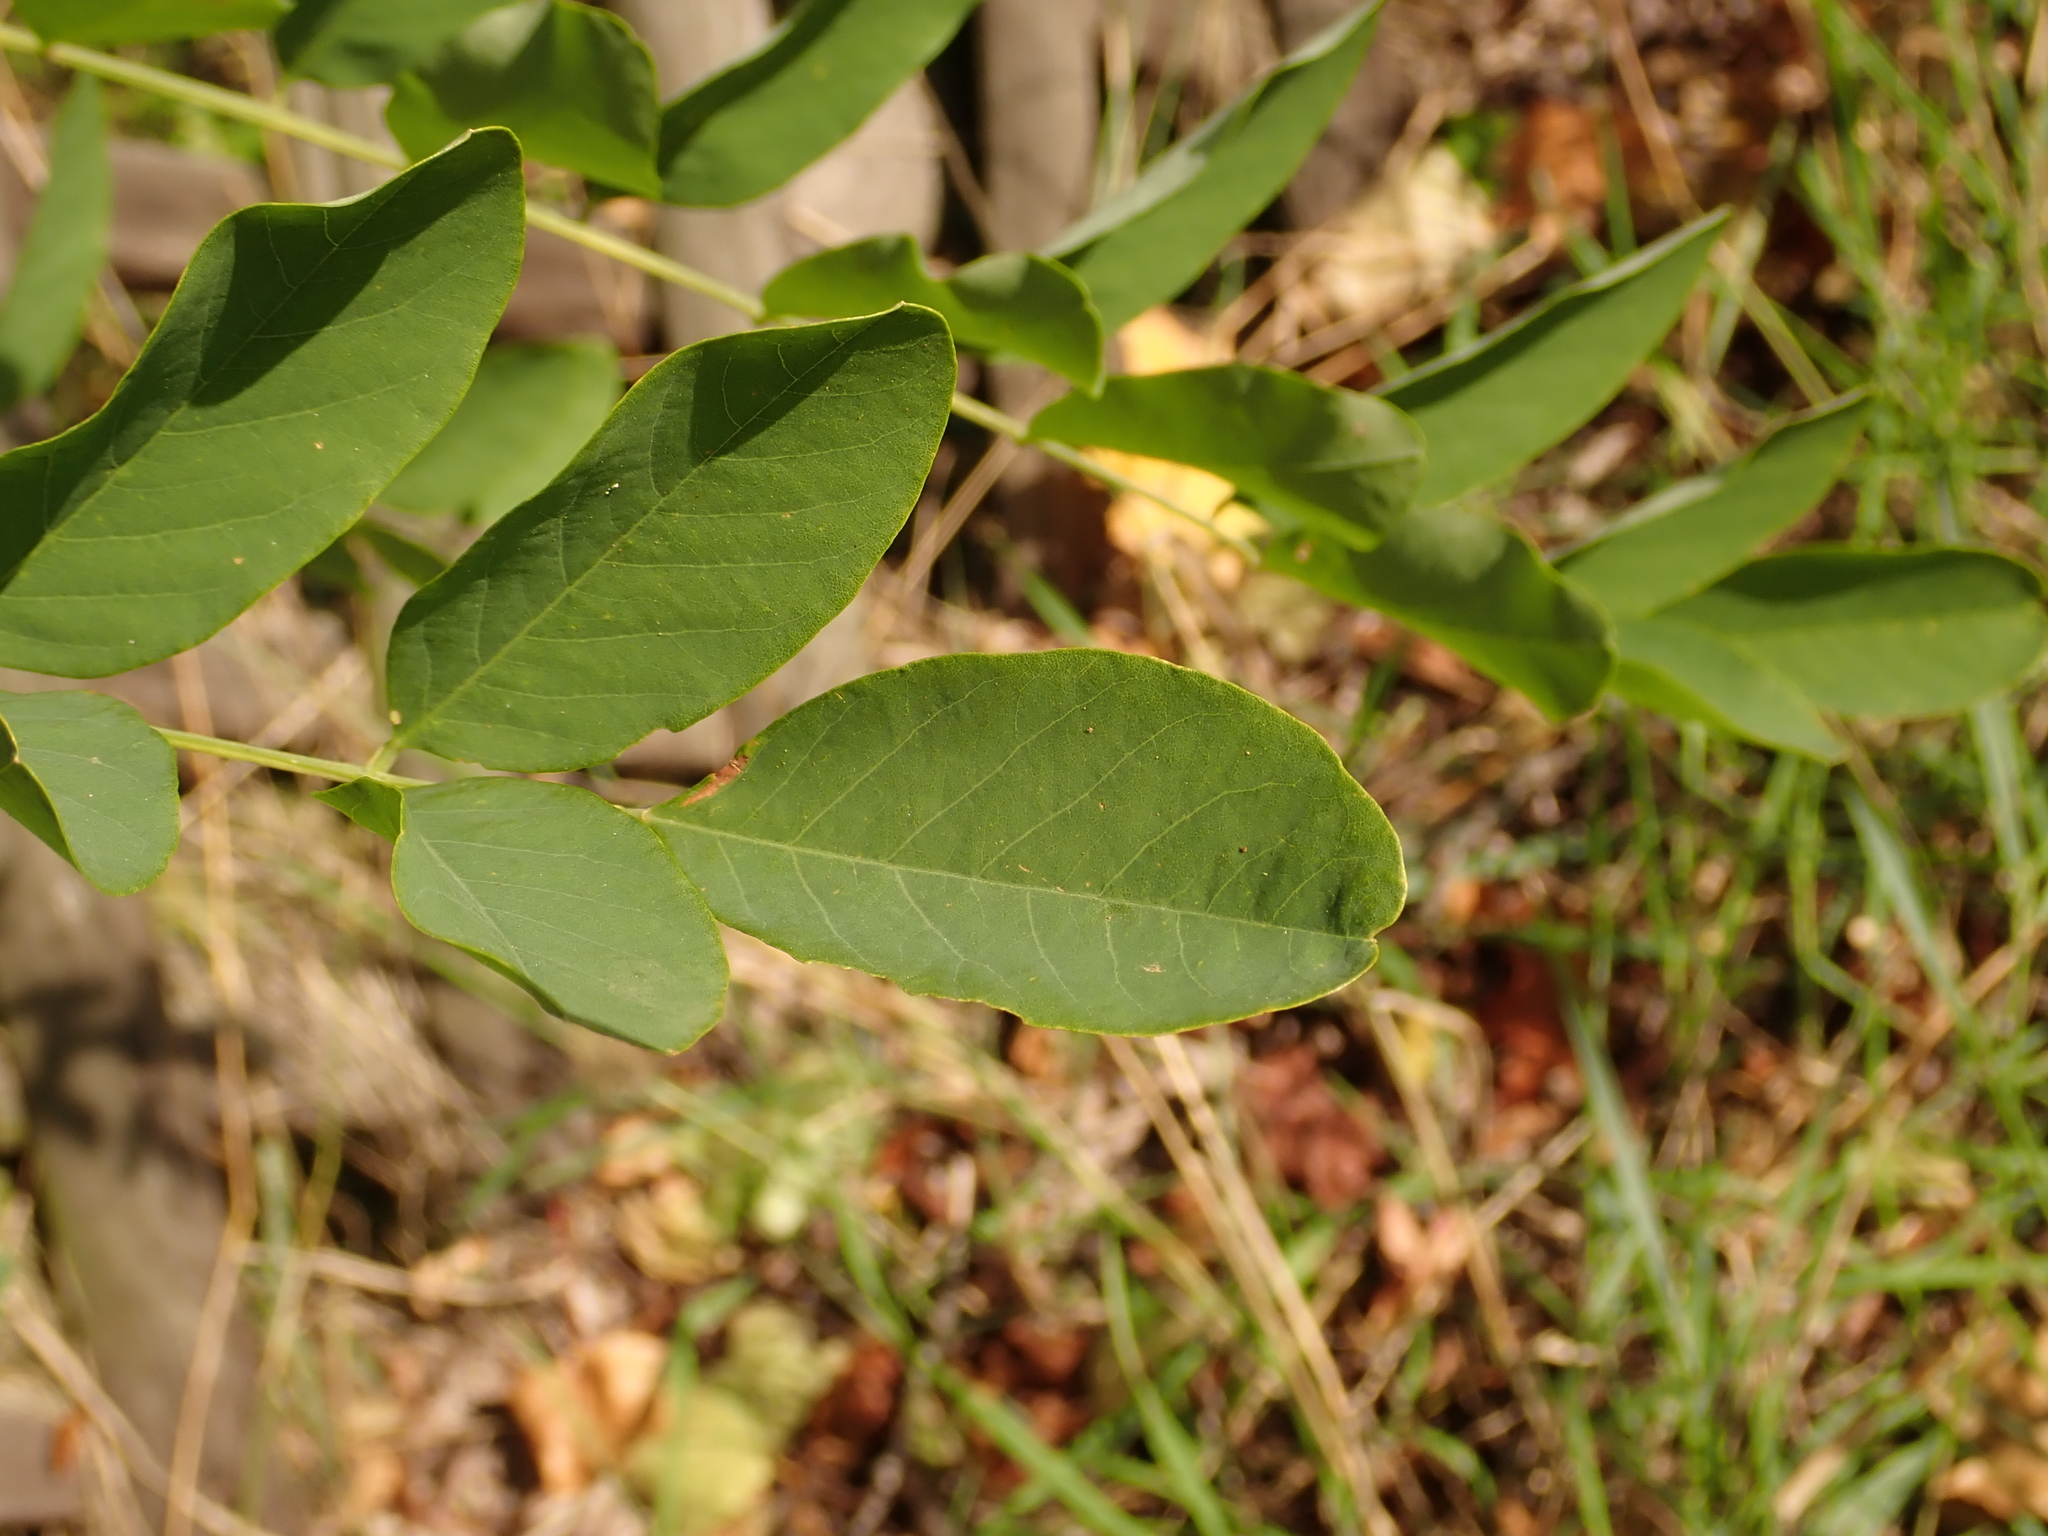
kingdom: Plantae
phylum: Tracheophyta
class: Magnoliopsida
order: Fabales
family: Fabaceae
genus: Robinia
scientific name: Robinia pseudoacacia
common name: Black locust
